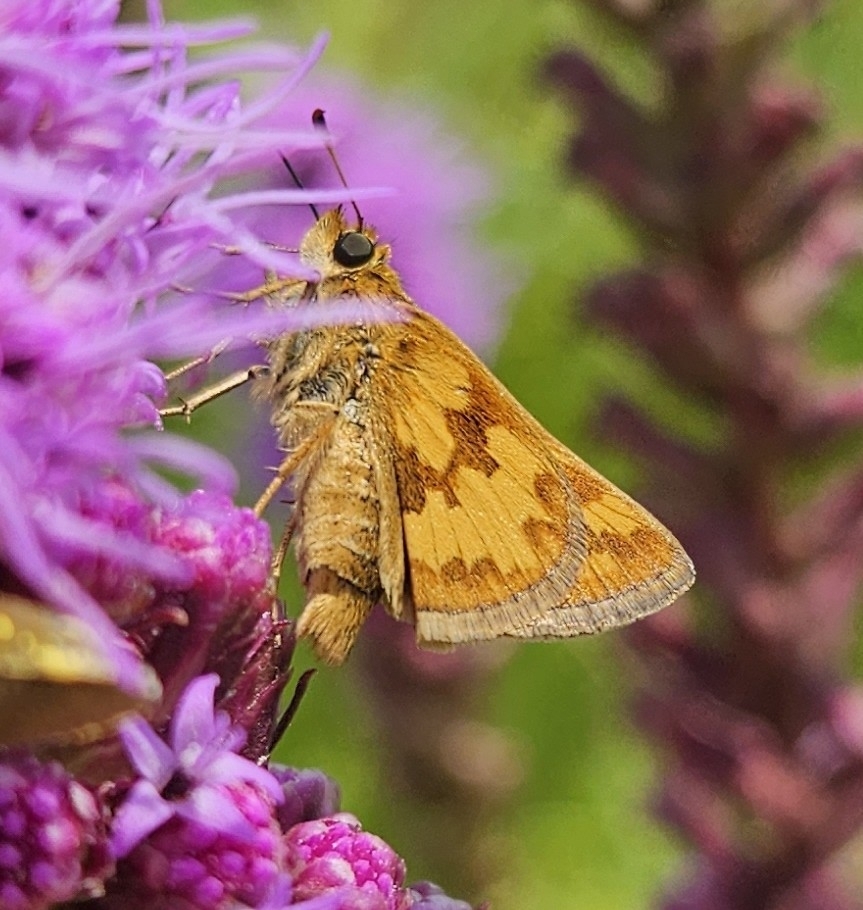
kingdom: Animalia
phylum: Arthropoda
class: Insecta
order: Lepidoptera
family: Hesperiidae
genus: Polites
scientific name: Polites coras
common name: Peck's skipper
